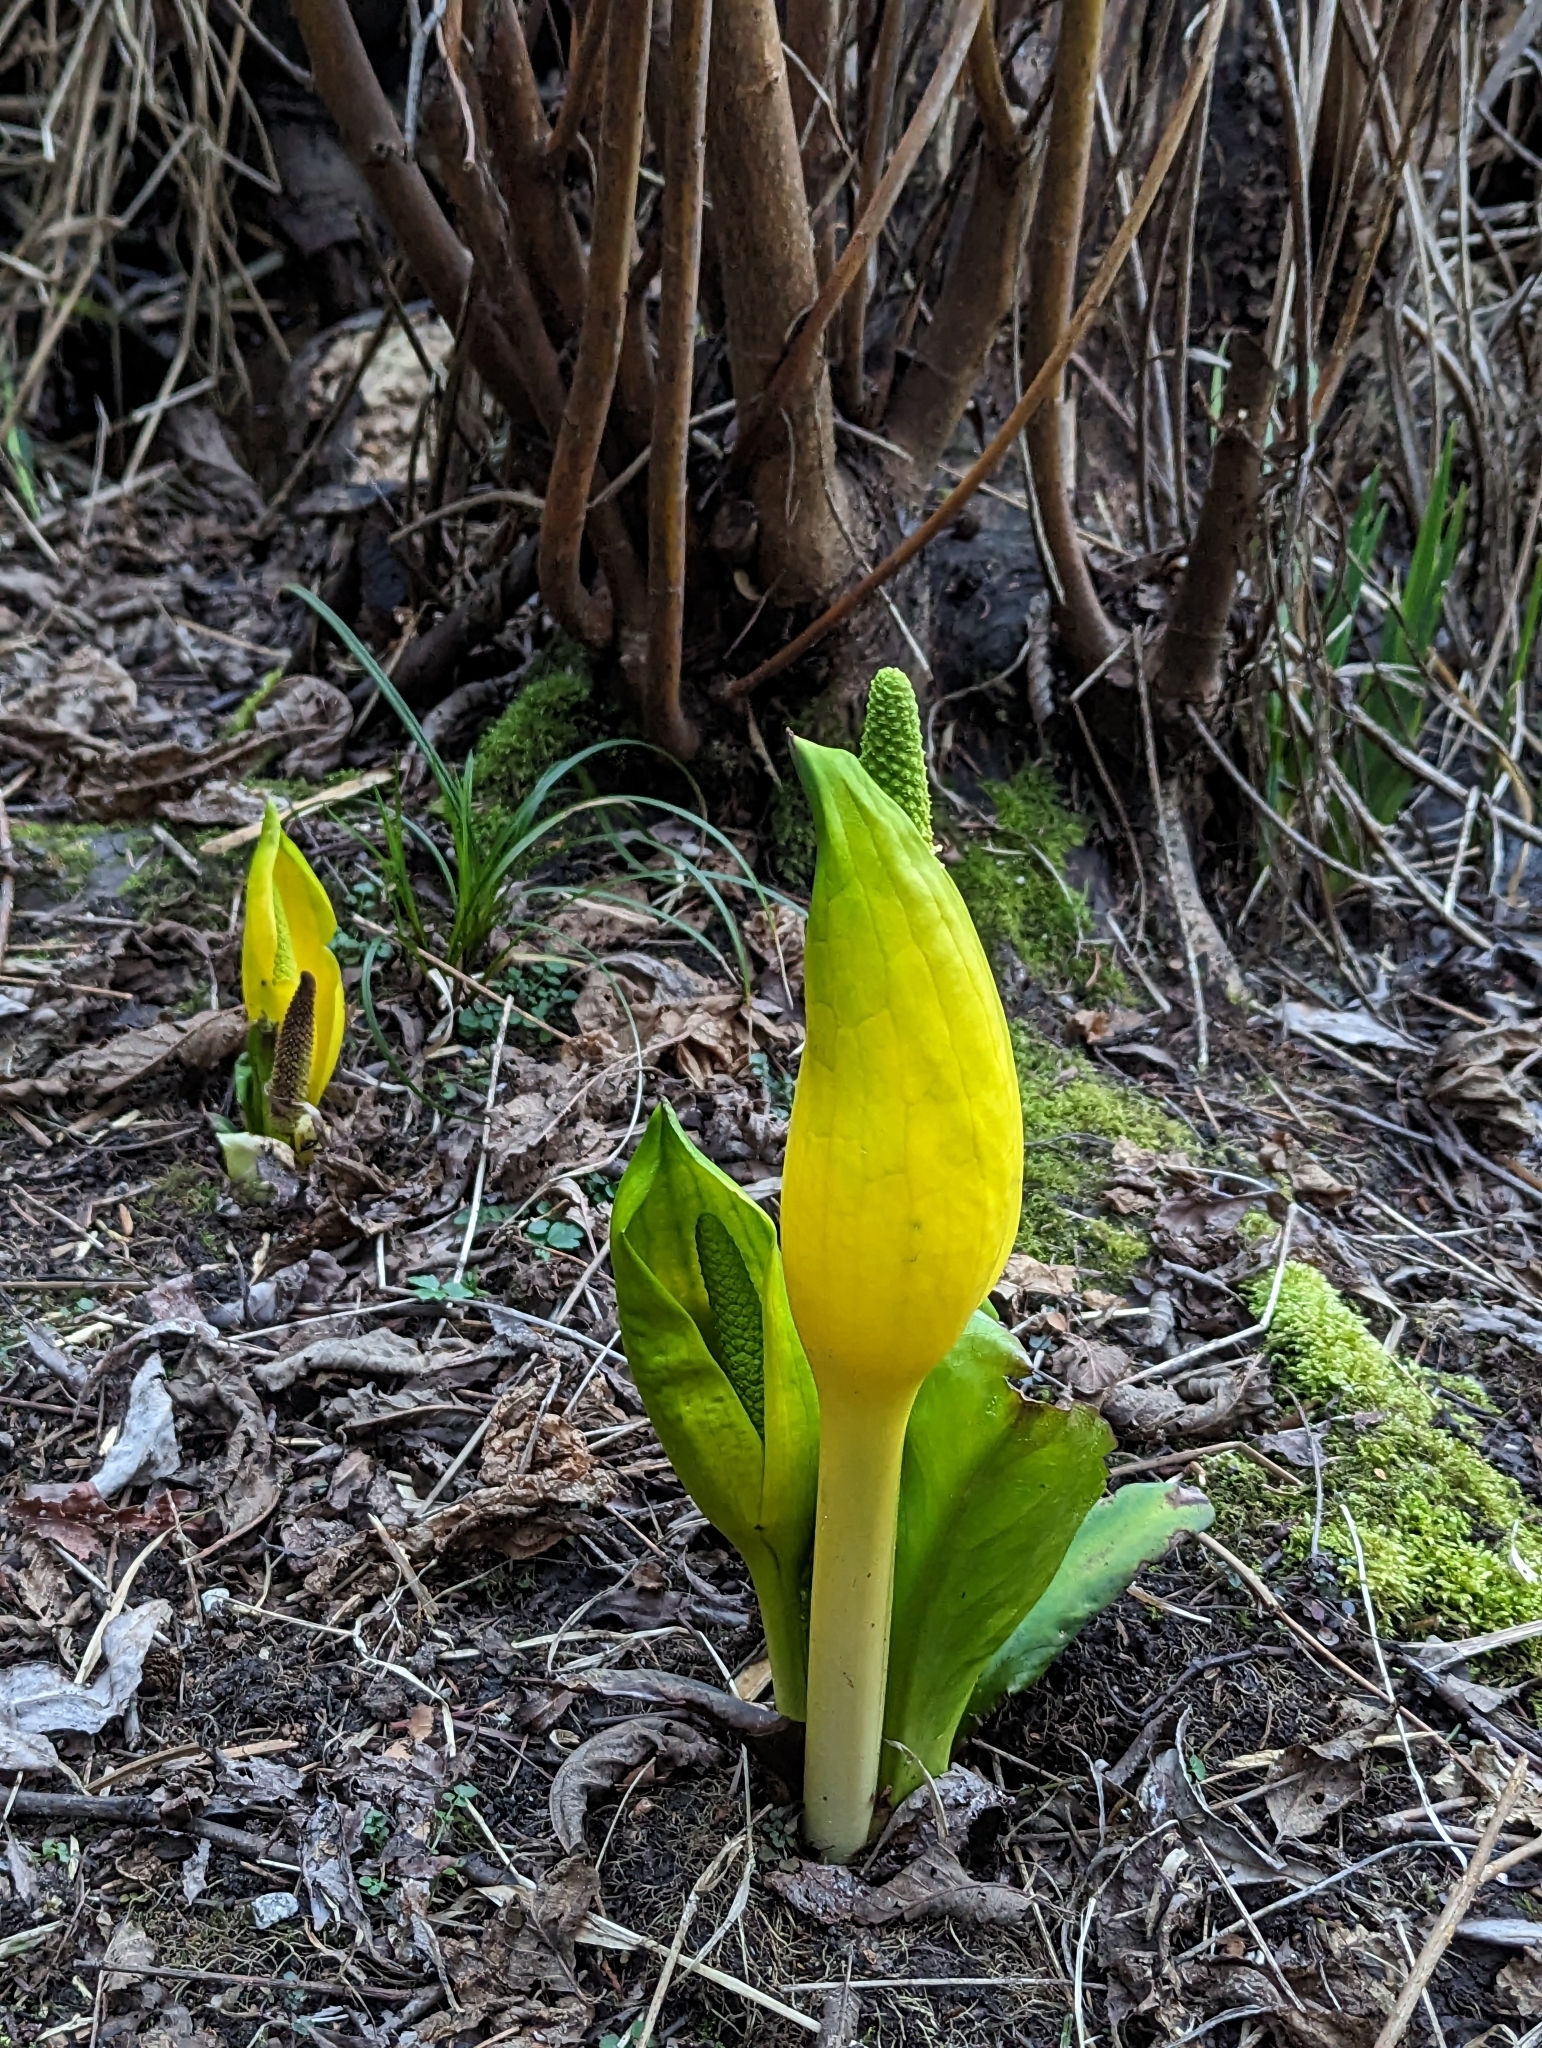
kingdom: Plantae
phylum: Tracheophyta
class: Liliopsida
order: Alismatales
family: Araceae
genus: Lysichiton
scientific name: Lysichiton americanus
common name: American skunk cabbage
